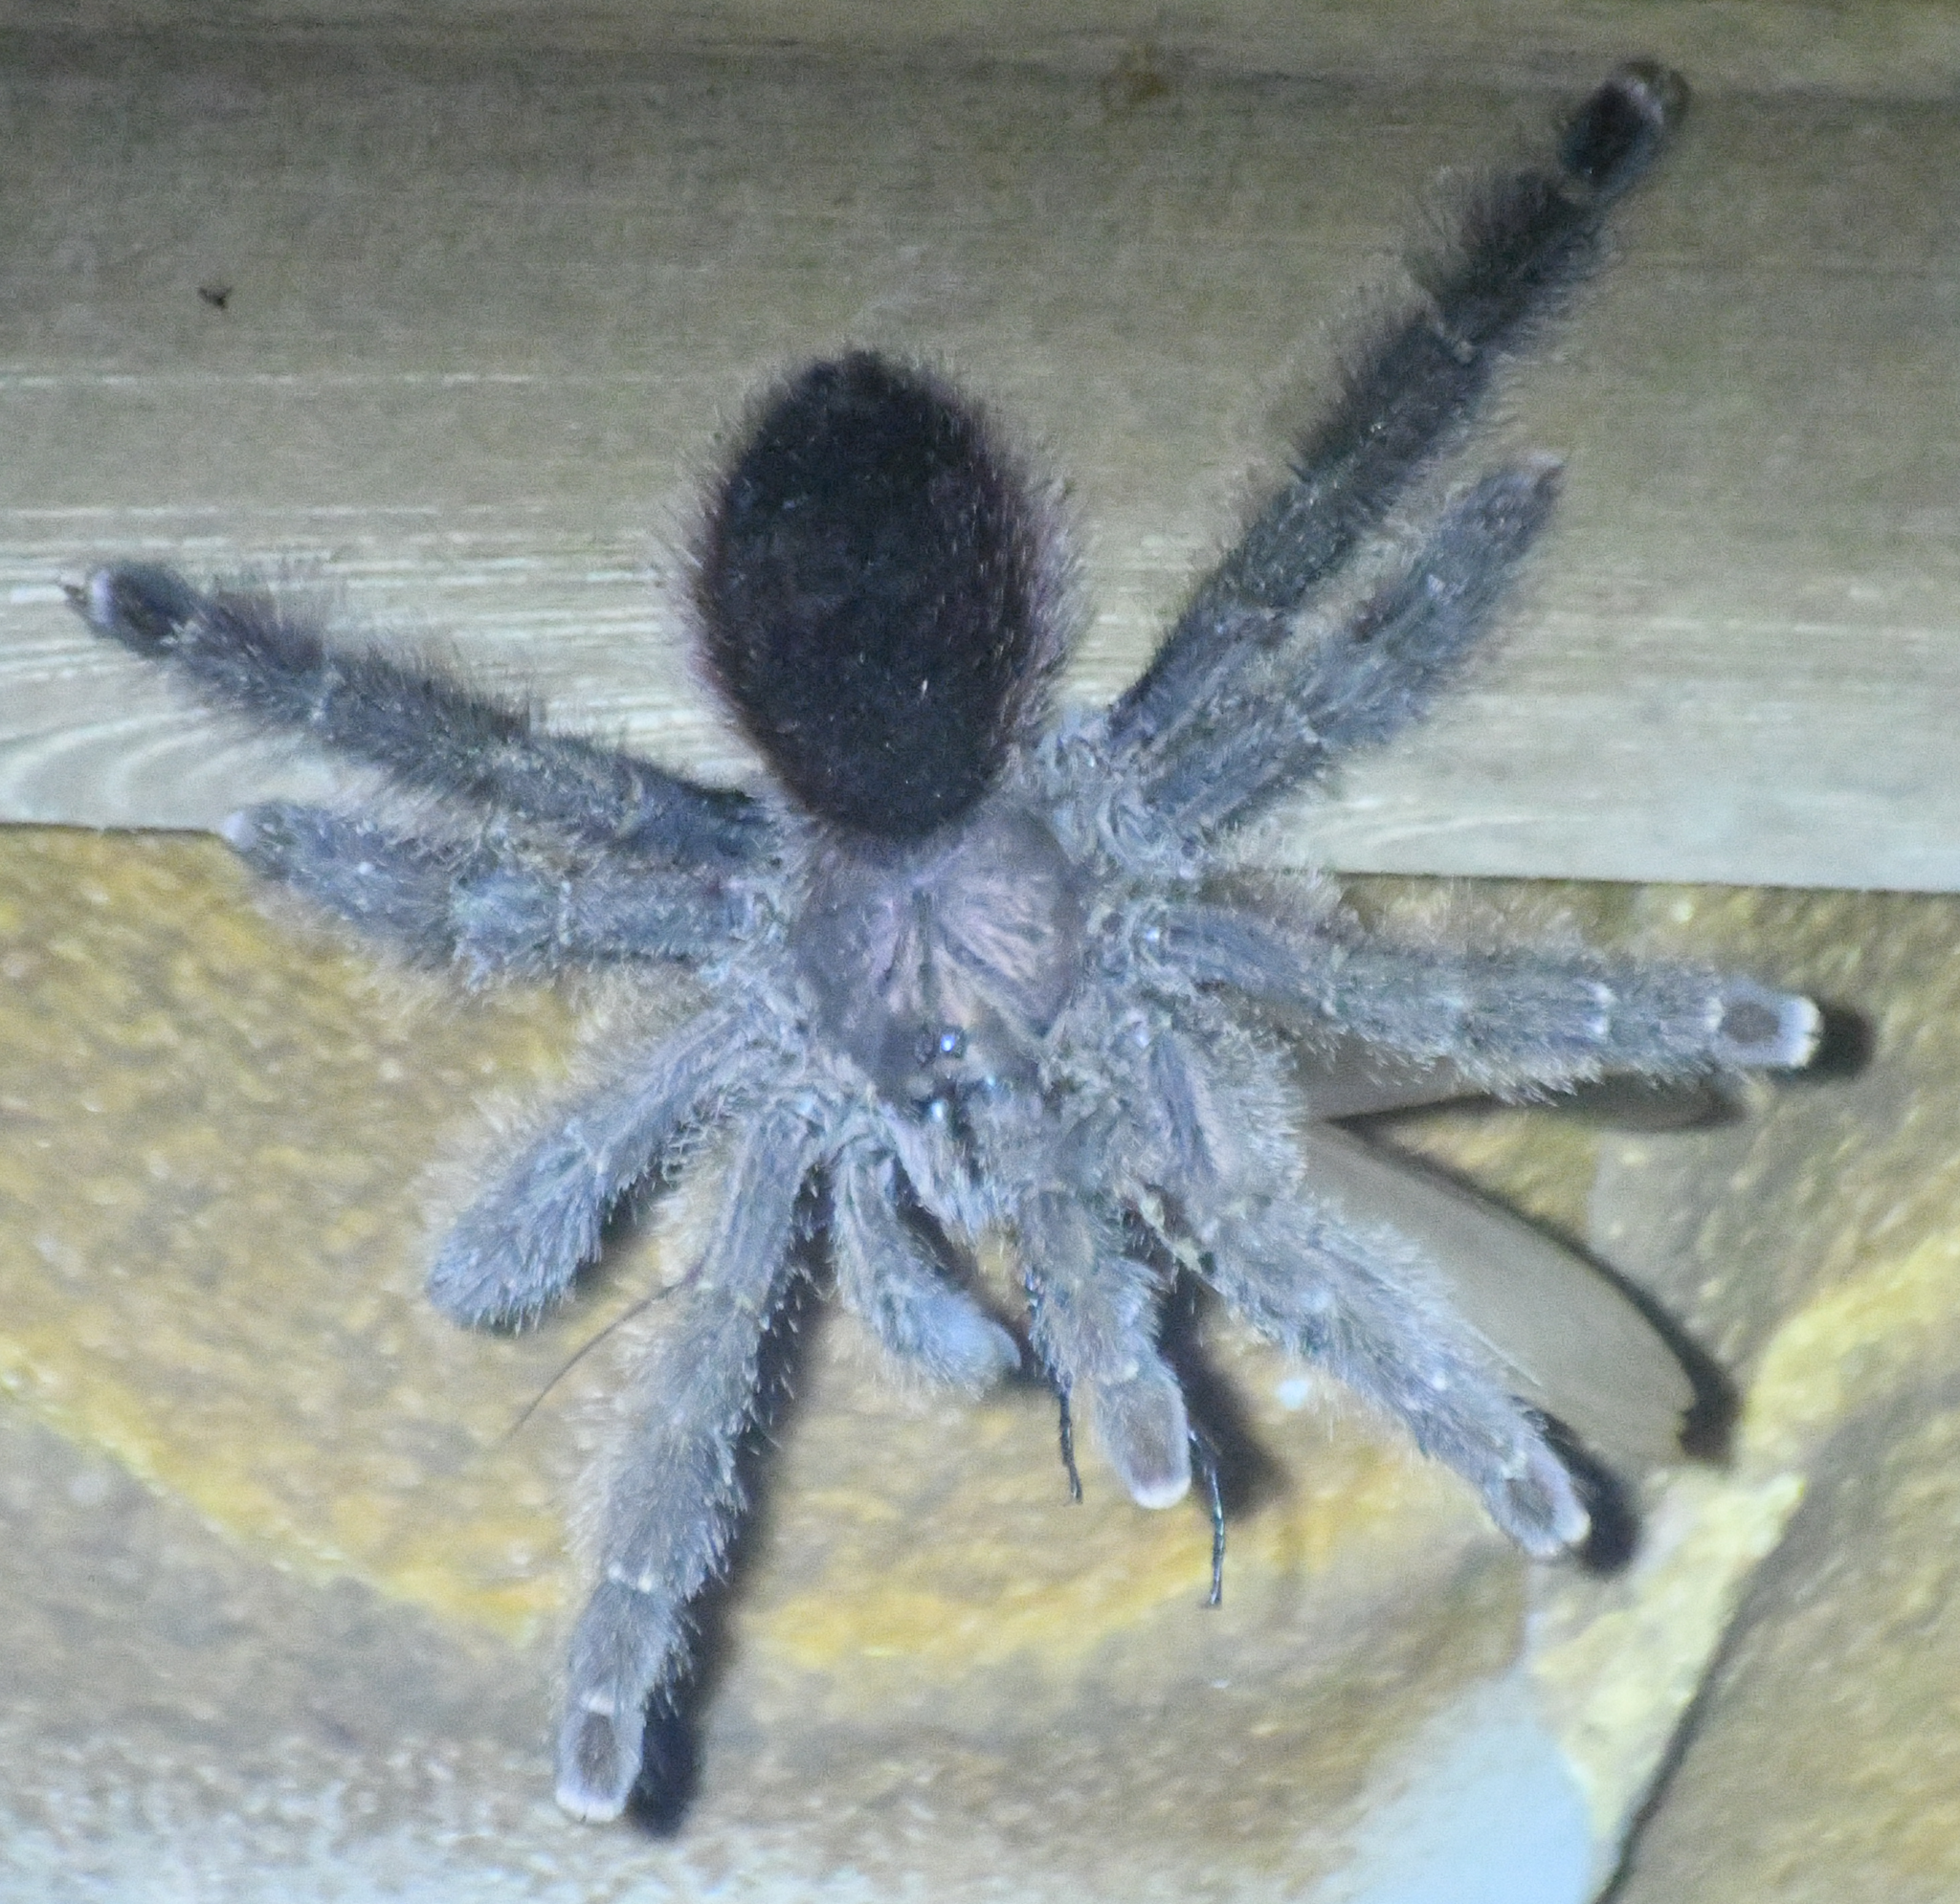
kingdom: Animalia
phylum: Arthropoda
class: Arachnida
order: Araneae
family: Theraphosidae
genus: Avicularia
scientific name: Avicularia juruensis
